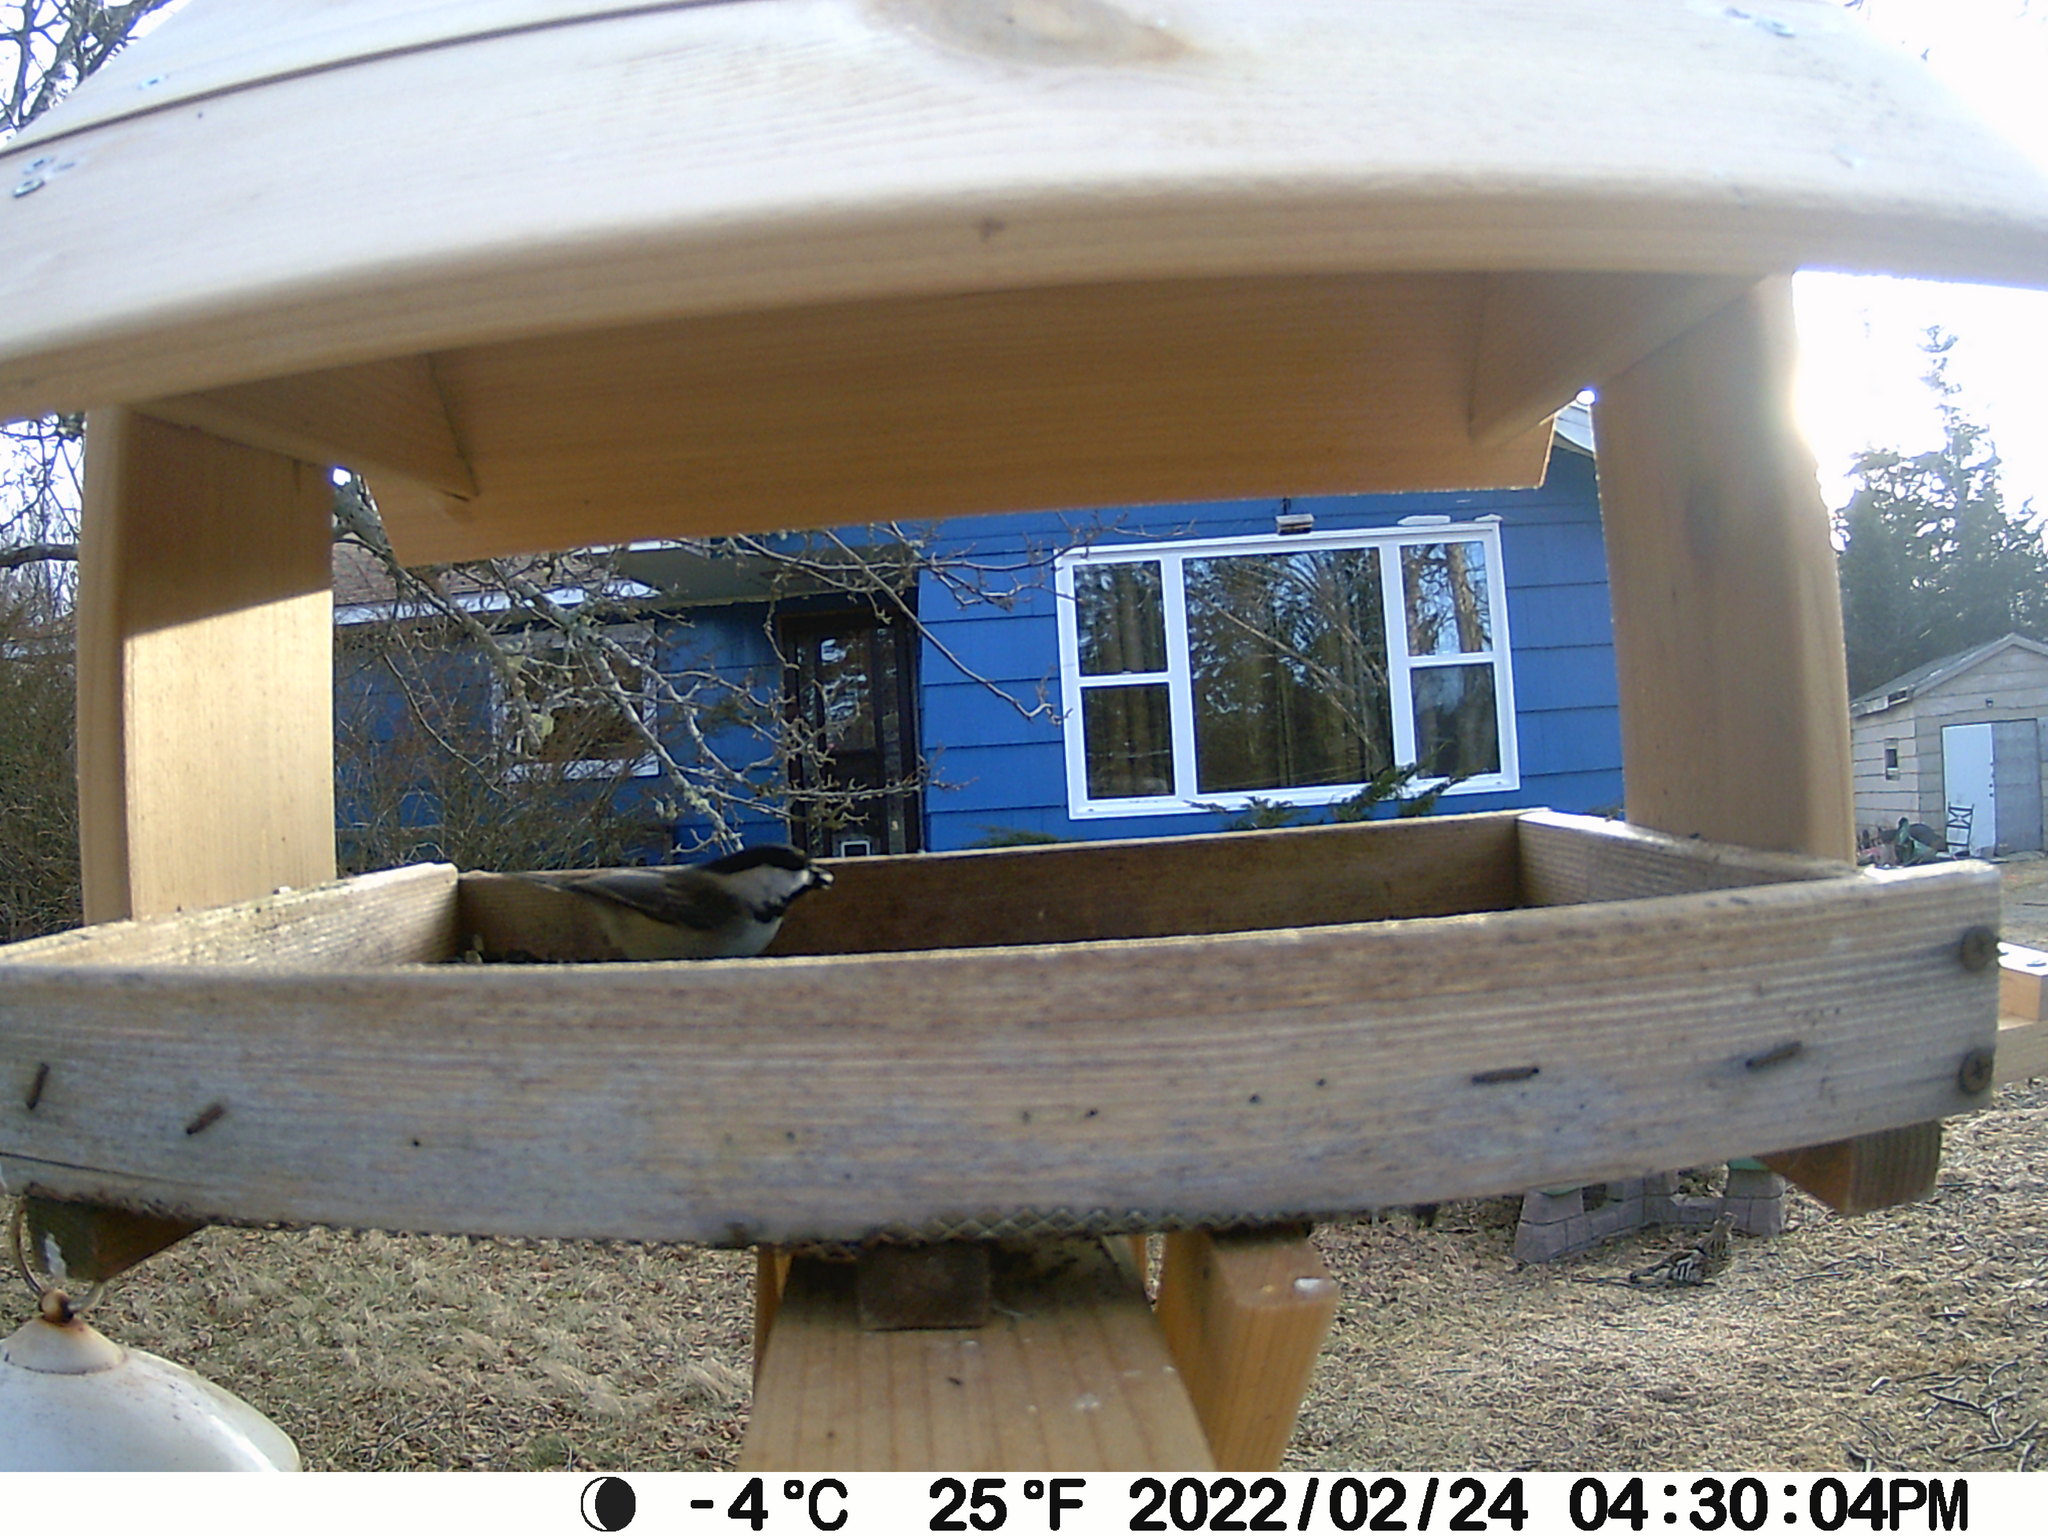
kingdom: Animalia
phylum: Chordata
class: Aves
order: Galliformes
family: Phasianidae
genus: Bonasa
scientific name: Bonasa umbellus
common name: Ruffed grouse
